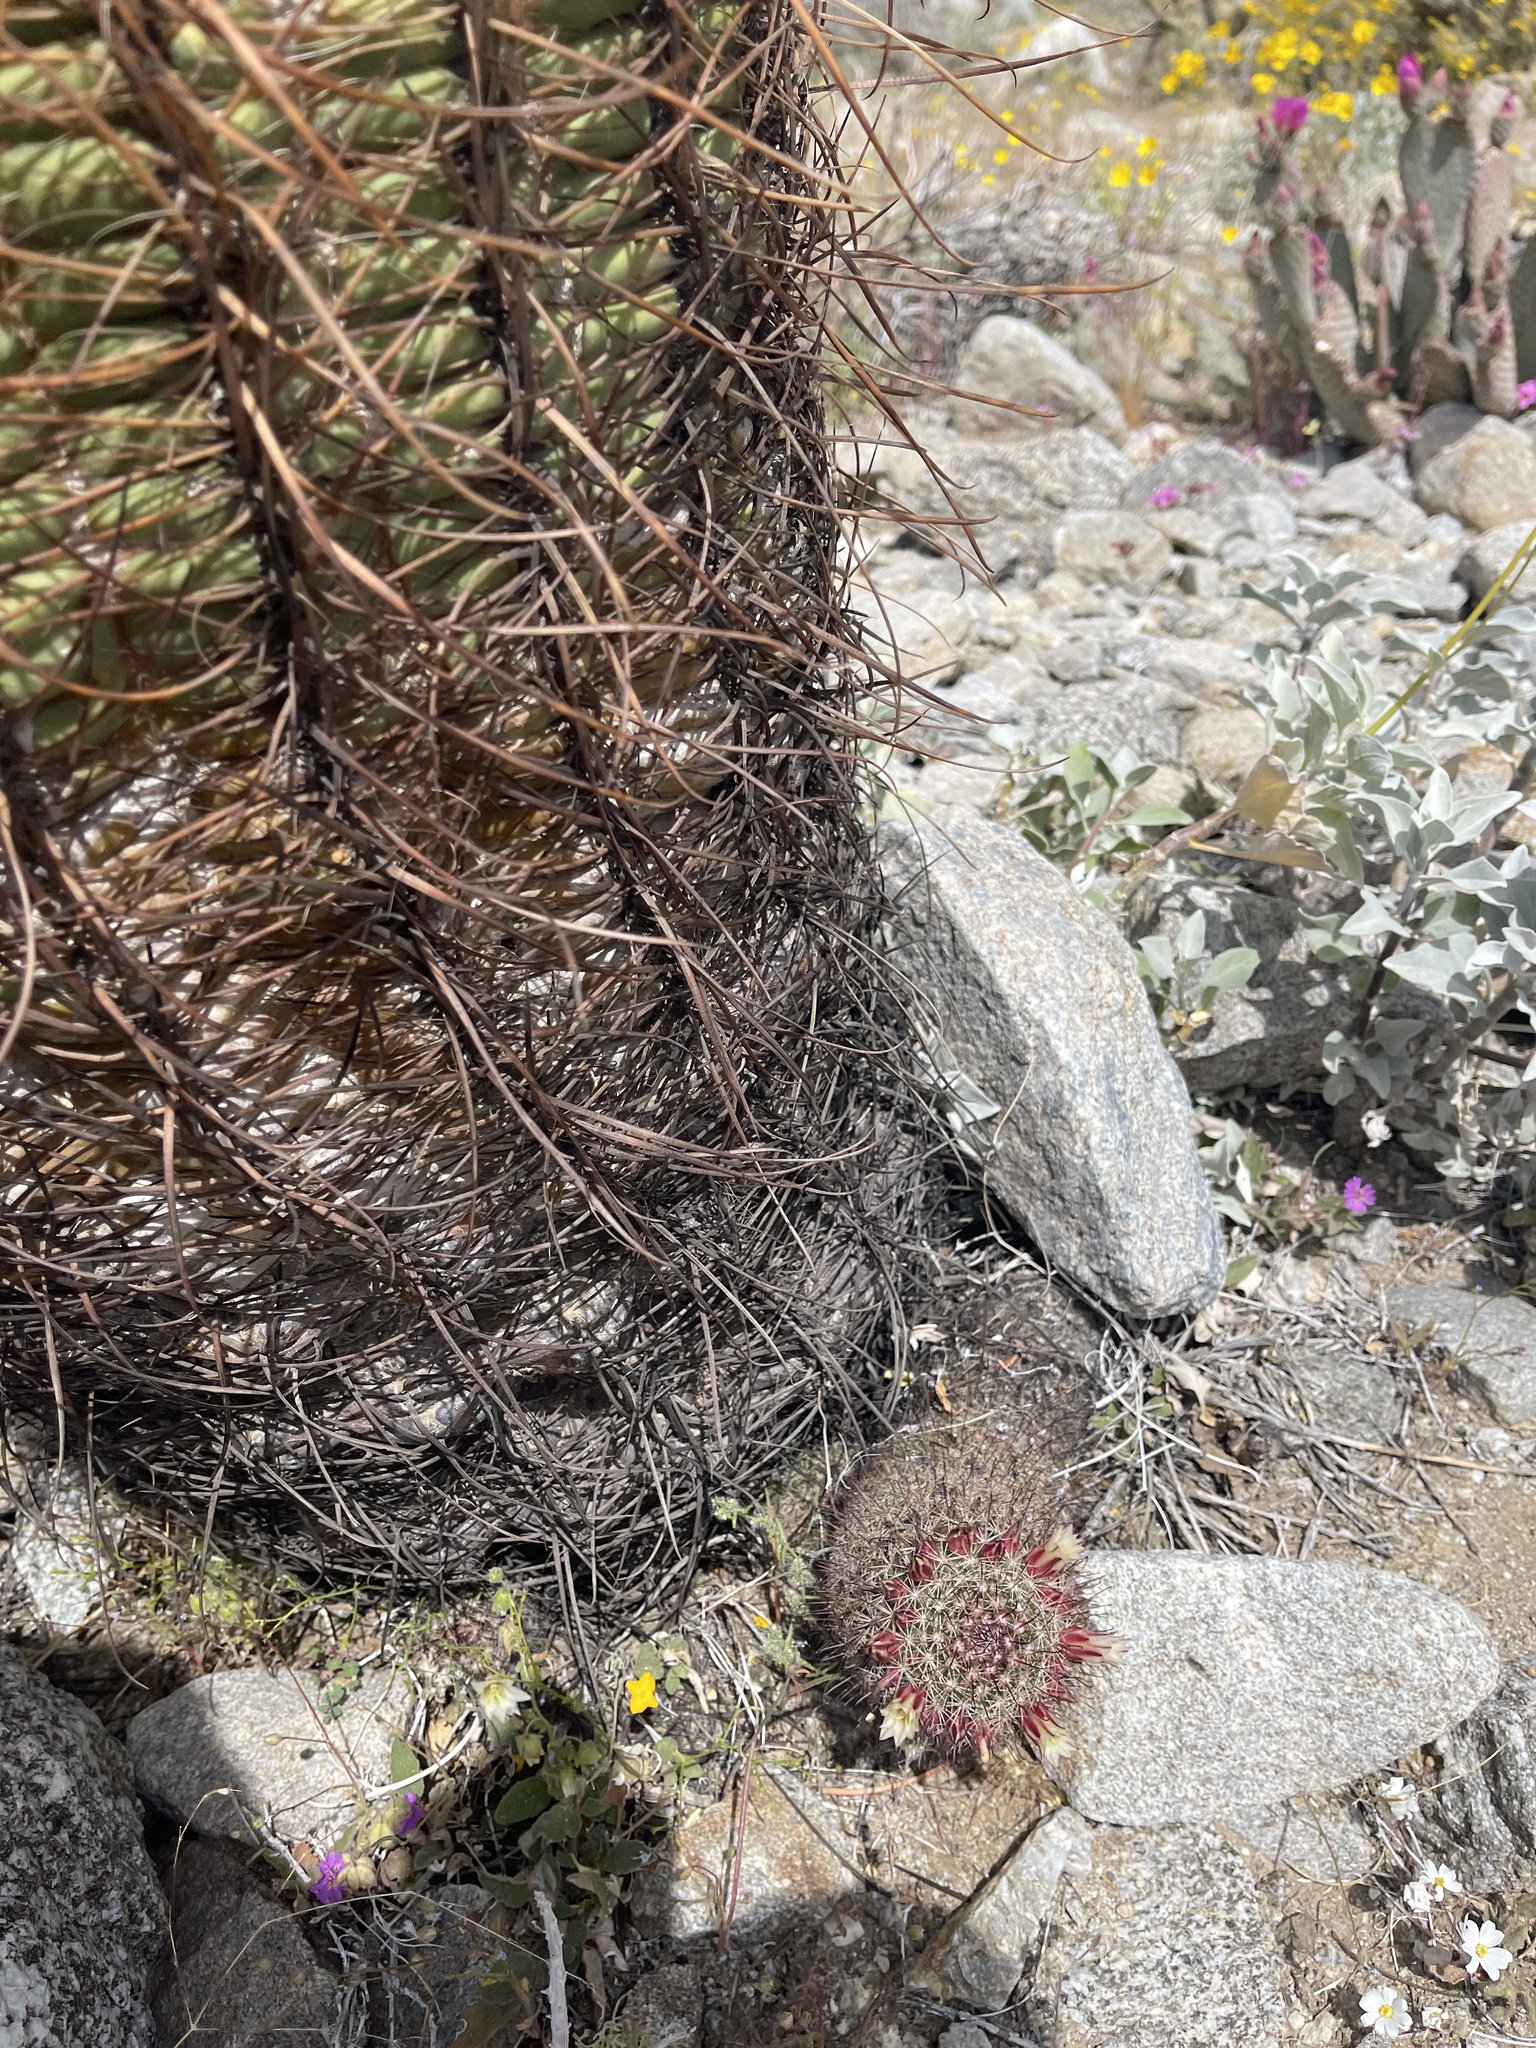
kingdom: Plantae
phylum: Tracheophyta
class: Magnoliopsida
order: Caryophyllales
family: Cactaceae
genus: Cochemiea
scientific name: Cochemiea dioica
